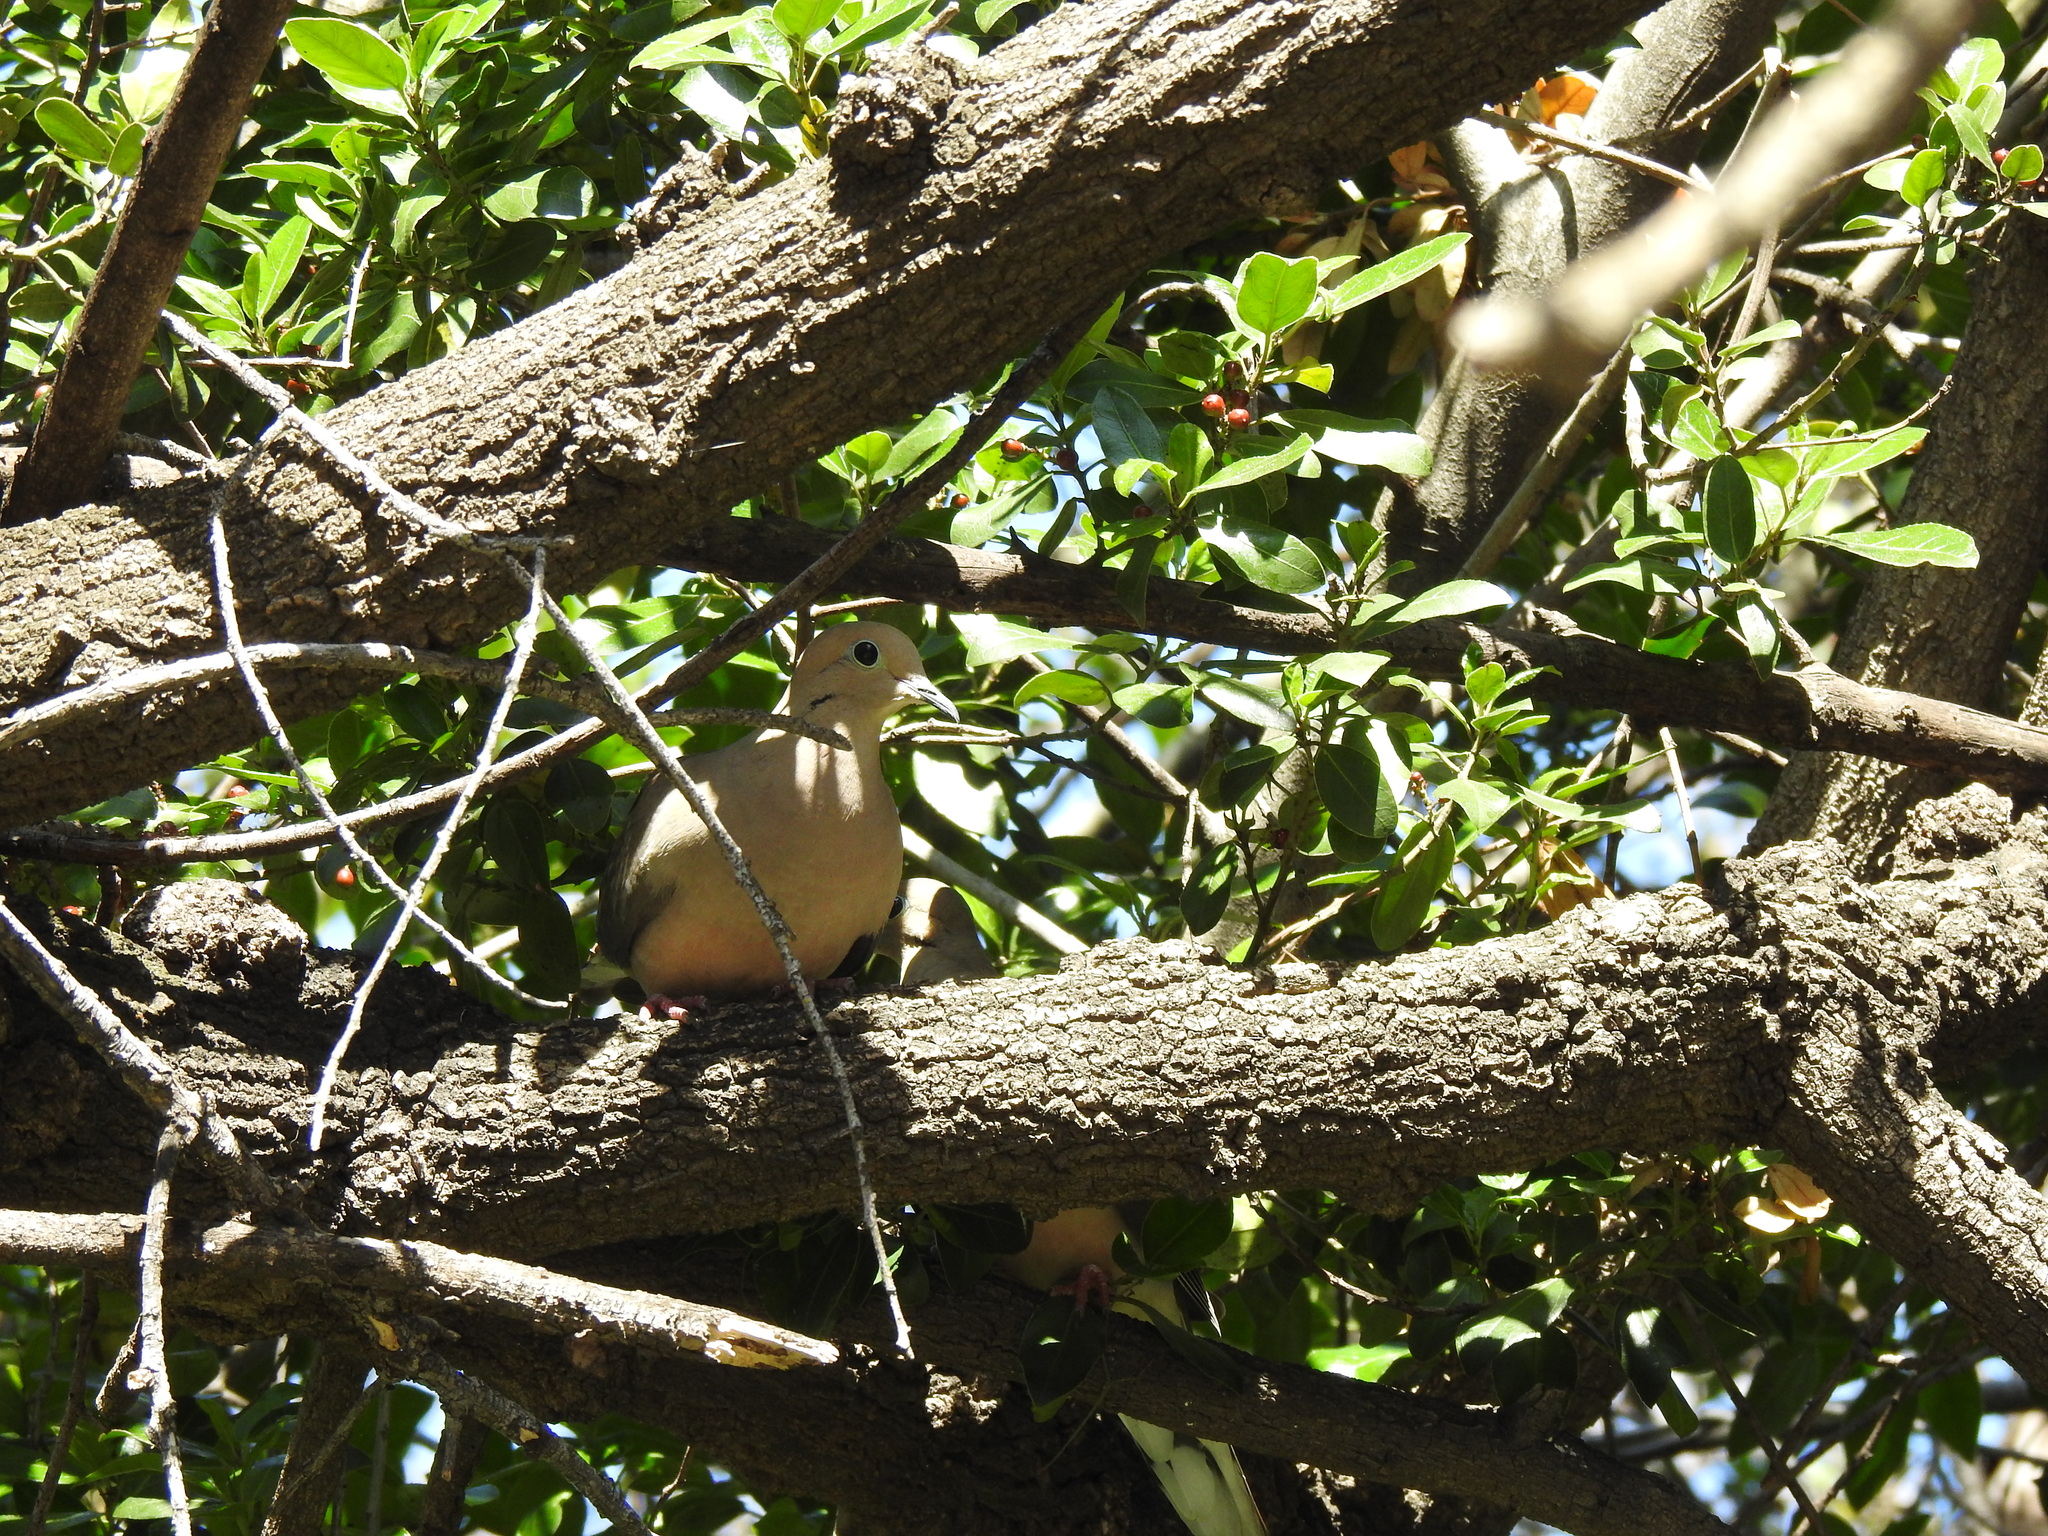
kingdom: Animalia
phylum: Chordata
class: Aves
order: Columbiformes
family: Columbidae
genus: Zenaida
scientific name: Zenaida macroura
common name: Mourning dove
